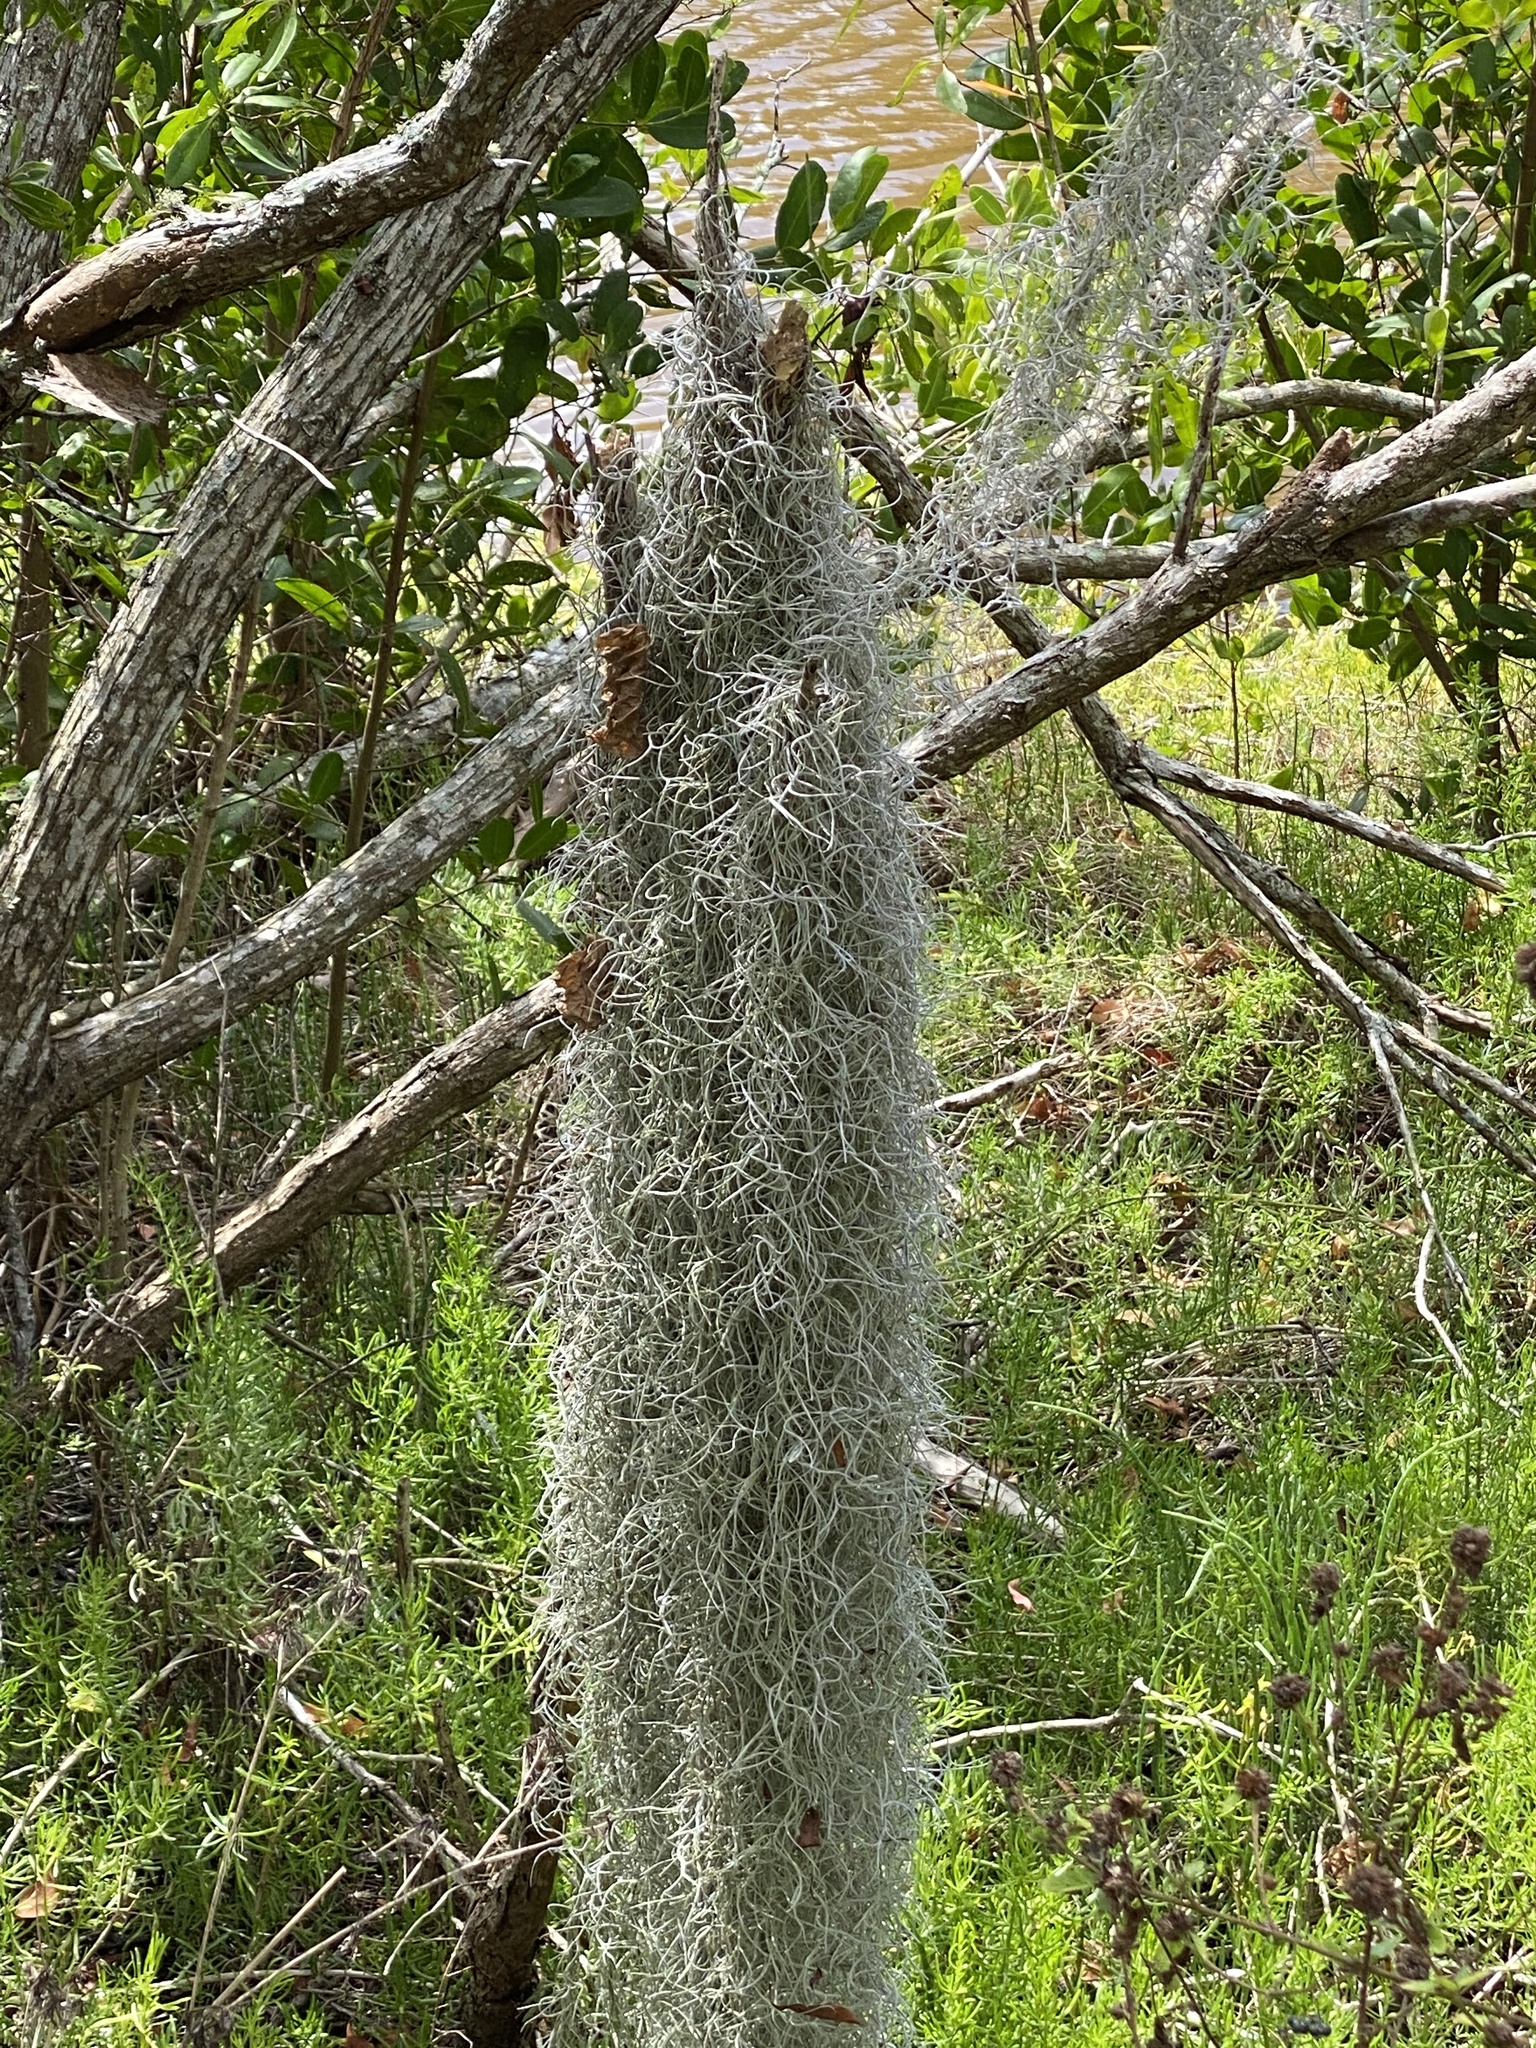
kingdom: Plantae
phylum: Tracheophyta
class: Liliopsida
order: Poales
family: Bromeliaceae
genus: Tillandsia
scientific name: Tillandsia usneoides
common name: Spanish moss
